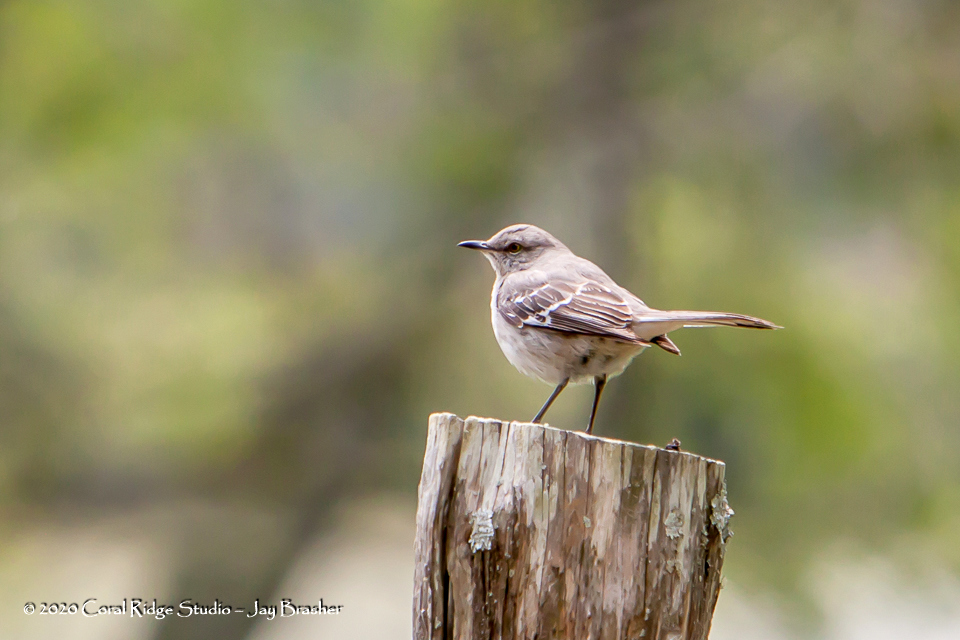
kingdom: Animalia
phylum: Chordata
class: Aves
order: Passeriformes
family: Mimidae
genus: Mimus
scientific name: Mimus polyglottos
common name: Northern mockingbird
